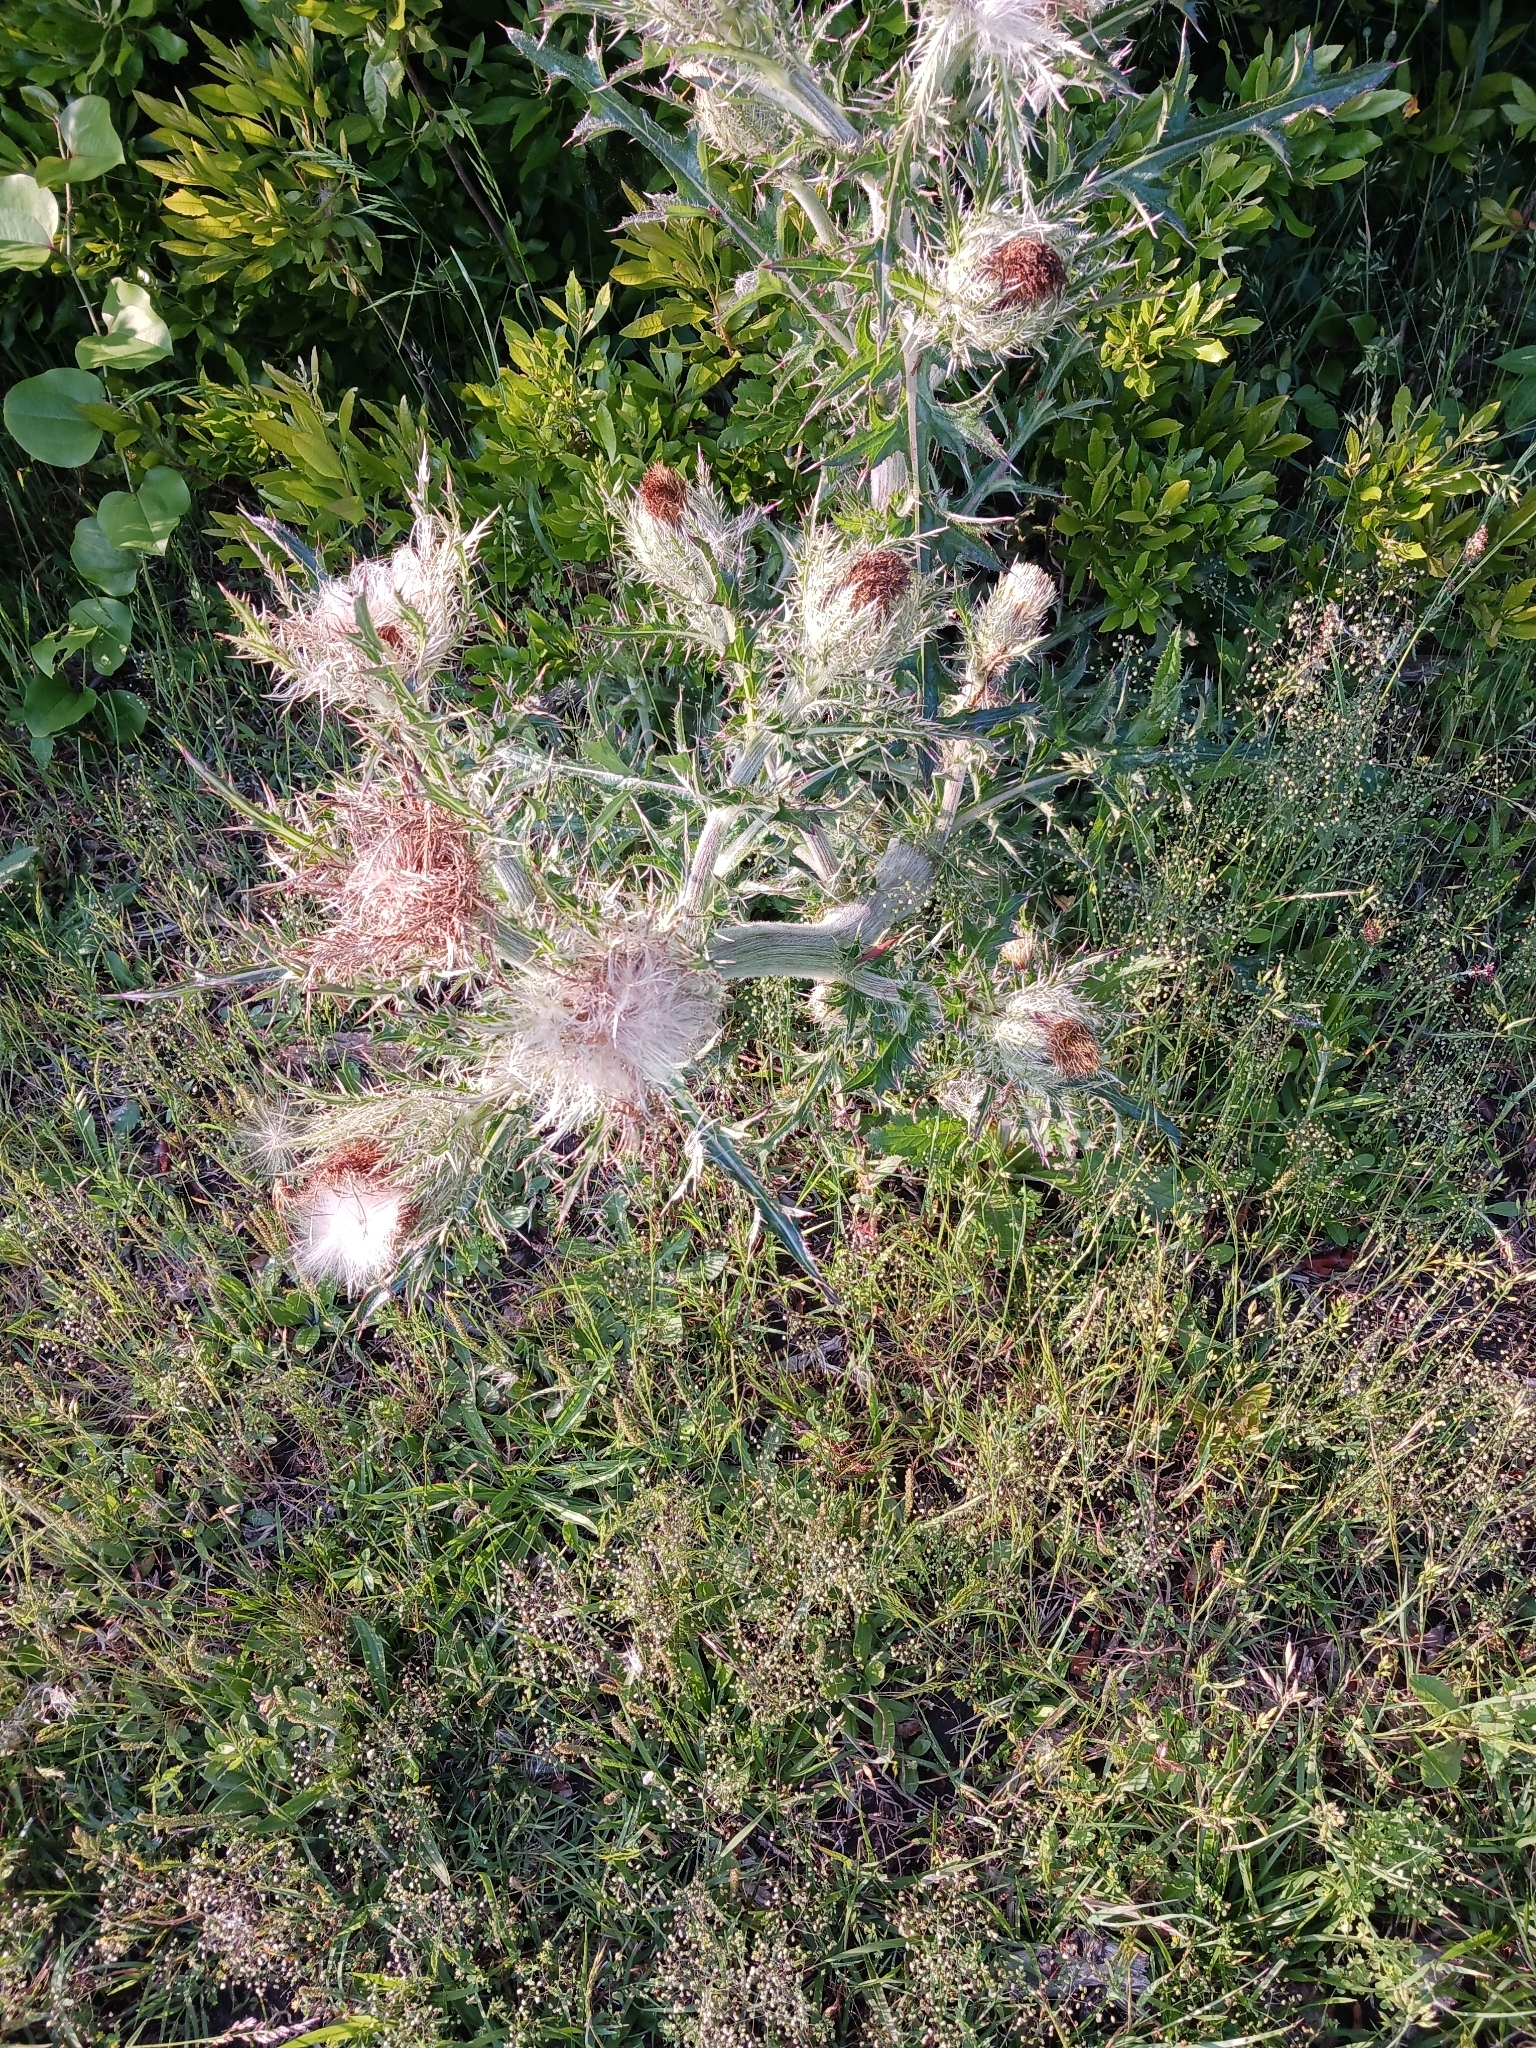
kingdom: Plantae
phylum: Tracheophyta
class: Magnoliopsida
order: Asterales
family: Asteraceae
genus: Cirsium
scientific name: Cirsium horridulum
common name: Bristly thistle
